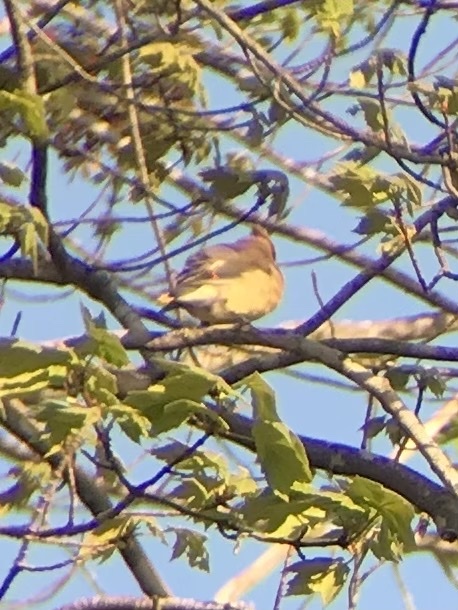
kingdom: Animalia
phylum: Chordata
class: Aves
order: Passeriformes
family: Bombycillidae
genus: Bombycilla
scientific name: Bombycilla cedrorum
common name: Cedar waxwing
